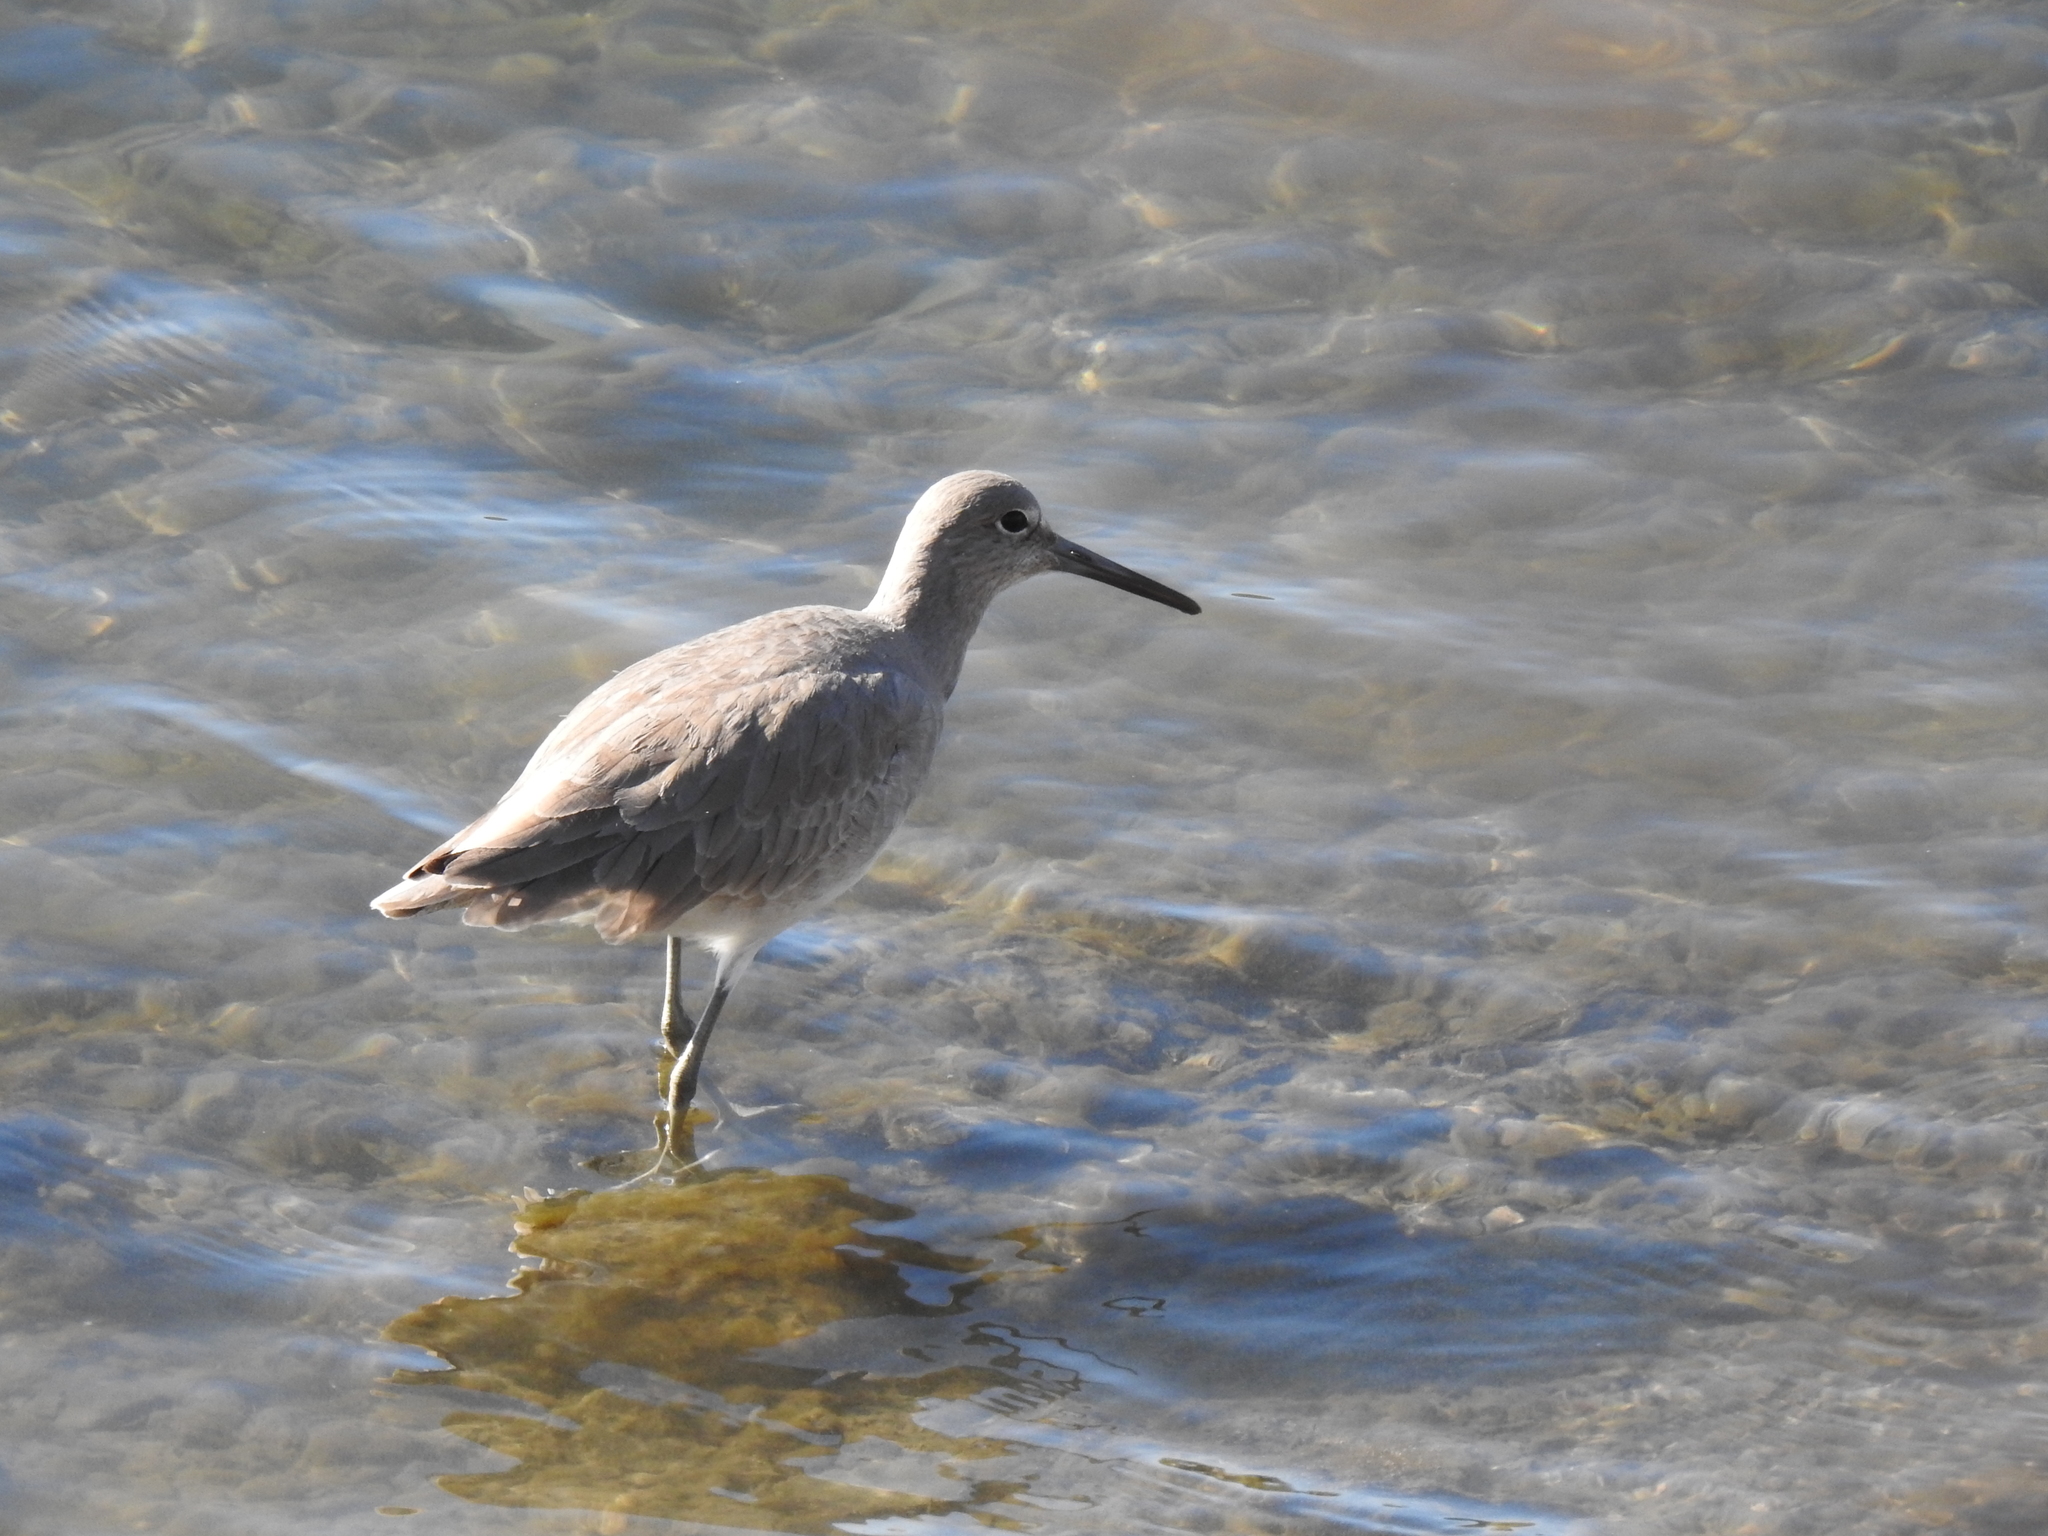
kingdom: Animalia
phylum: Chordata
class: Aves
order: Charadriiformes
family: Scolopacidae
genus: Tringa
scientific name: Tringa semipalmata
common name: Willet
